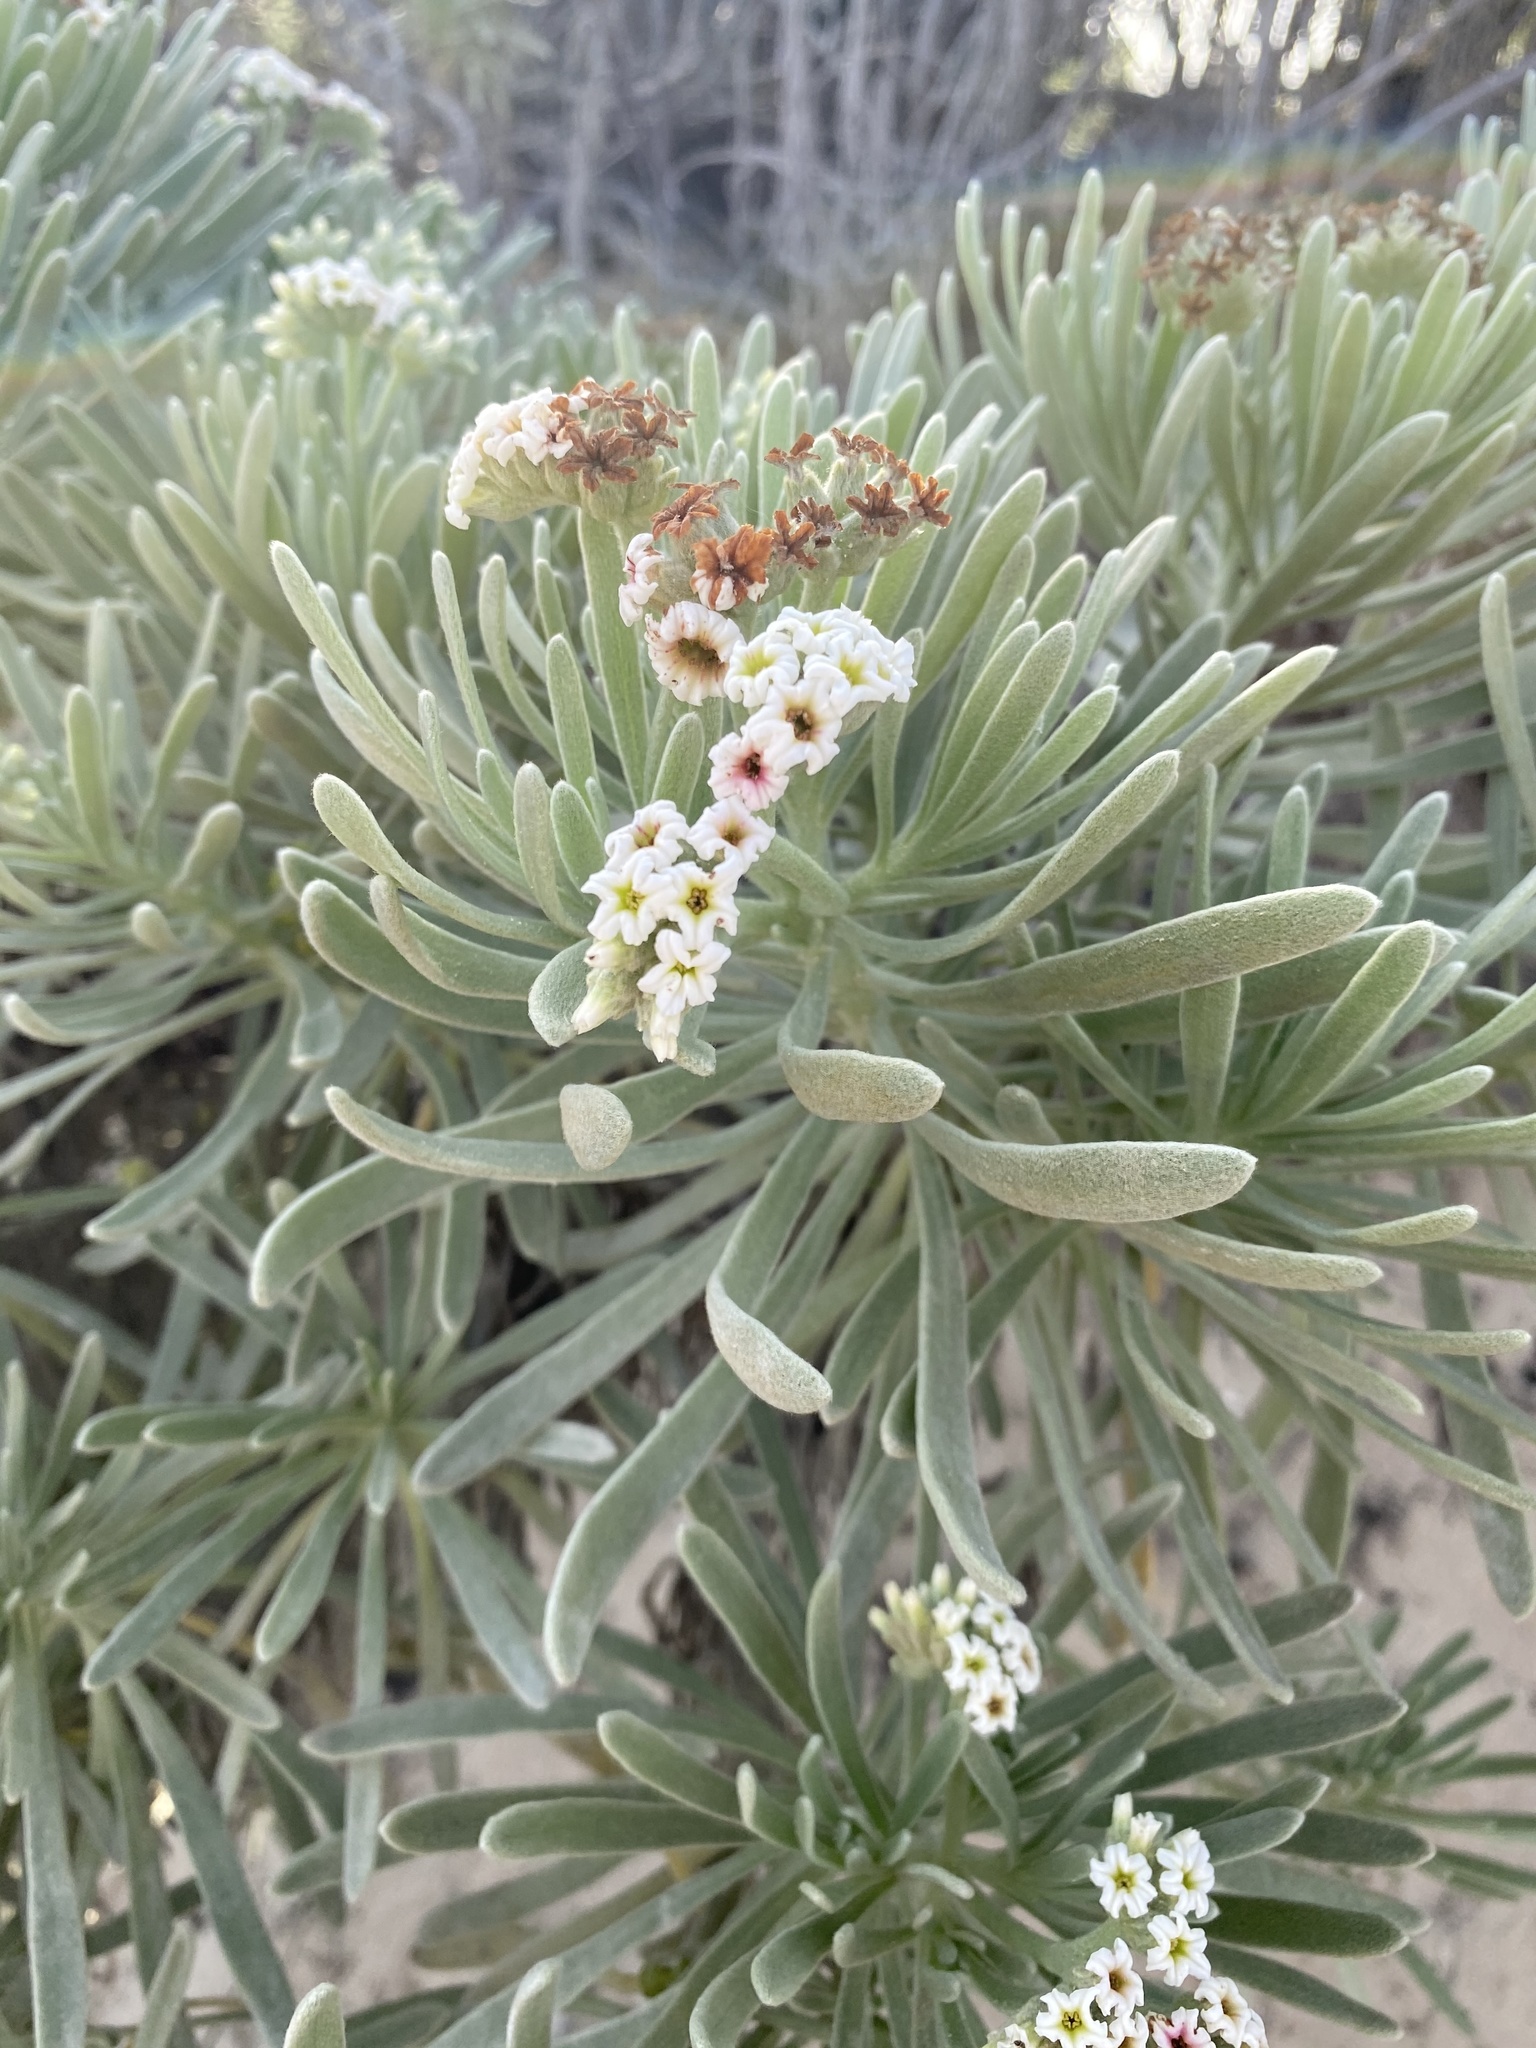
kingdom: Plantae
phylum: Tracheophyta
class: Magnoliopsida
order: Boraginales
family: Heliotropiaceae
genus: Tournefortia
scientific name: Tournefortia gnaphalodes
